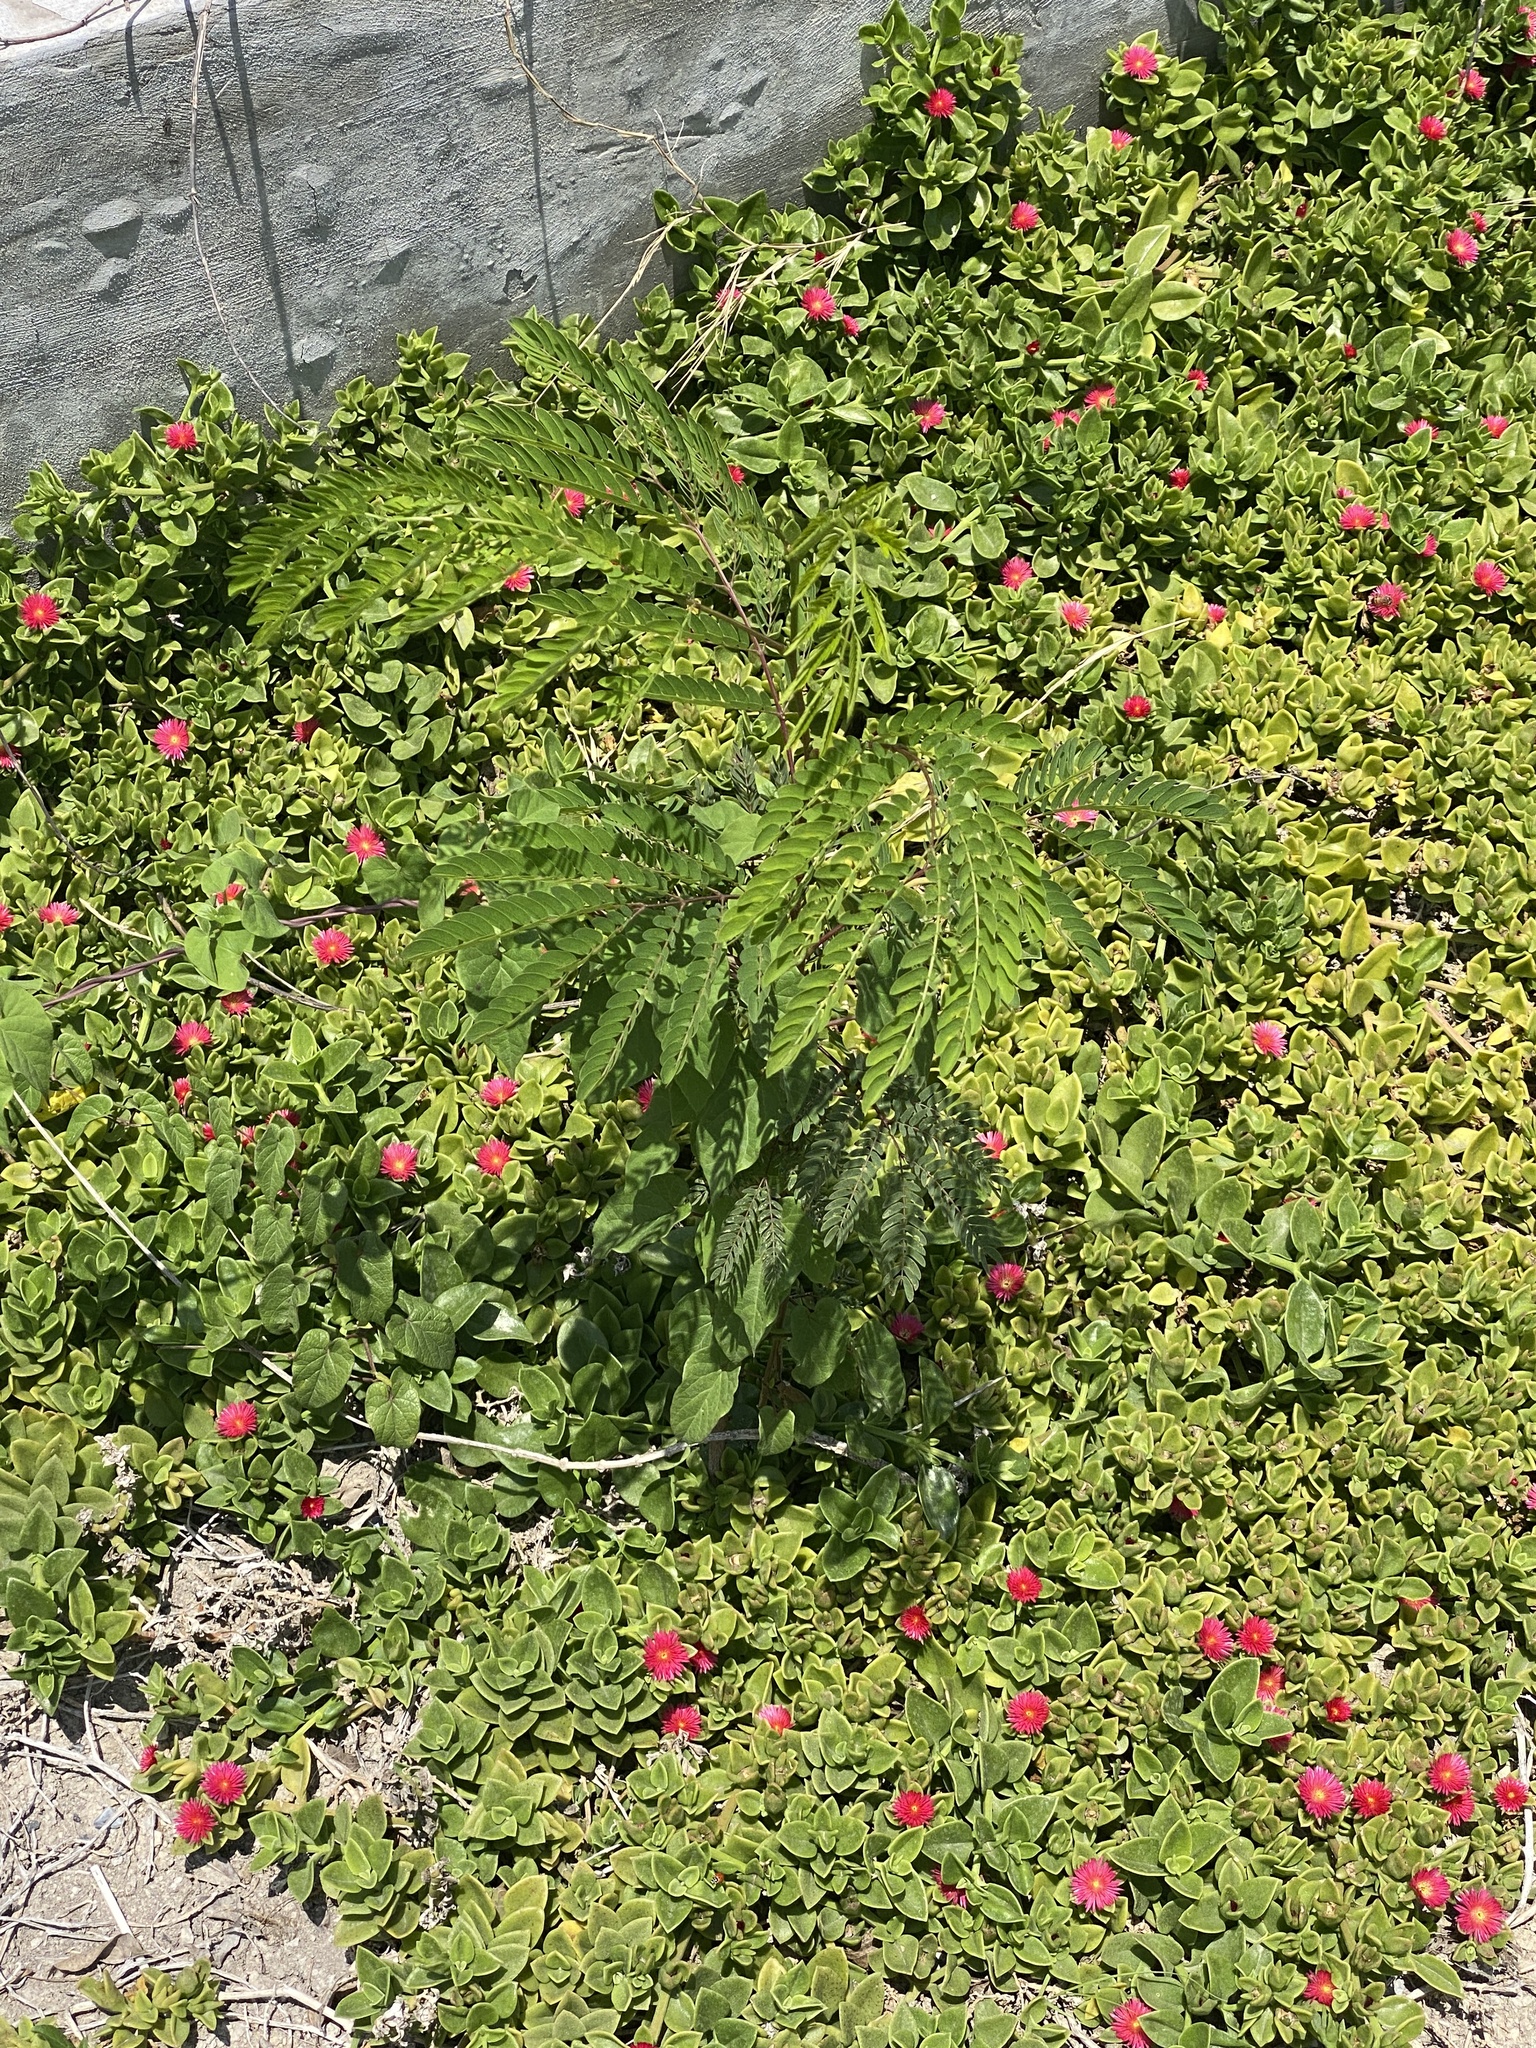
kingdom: Plantae
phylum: Tracheophyta
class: Magnoliopsida
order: Fabales
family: Fabaceae
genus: Leucaena
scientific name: Leucaena leucocephala
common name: White leadtree
